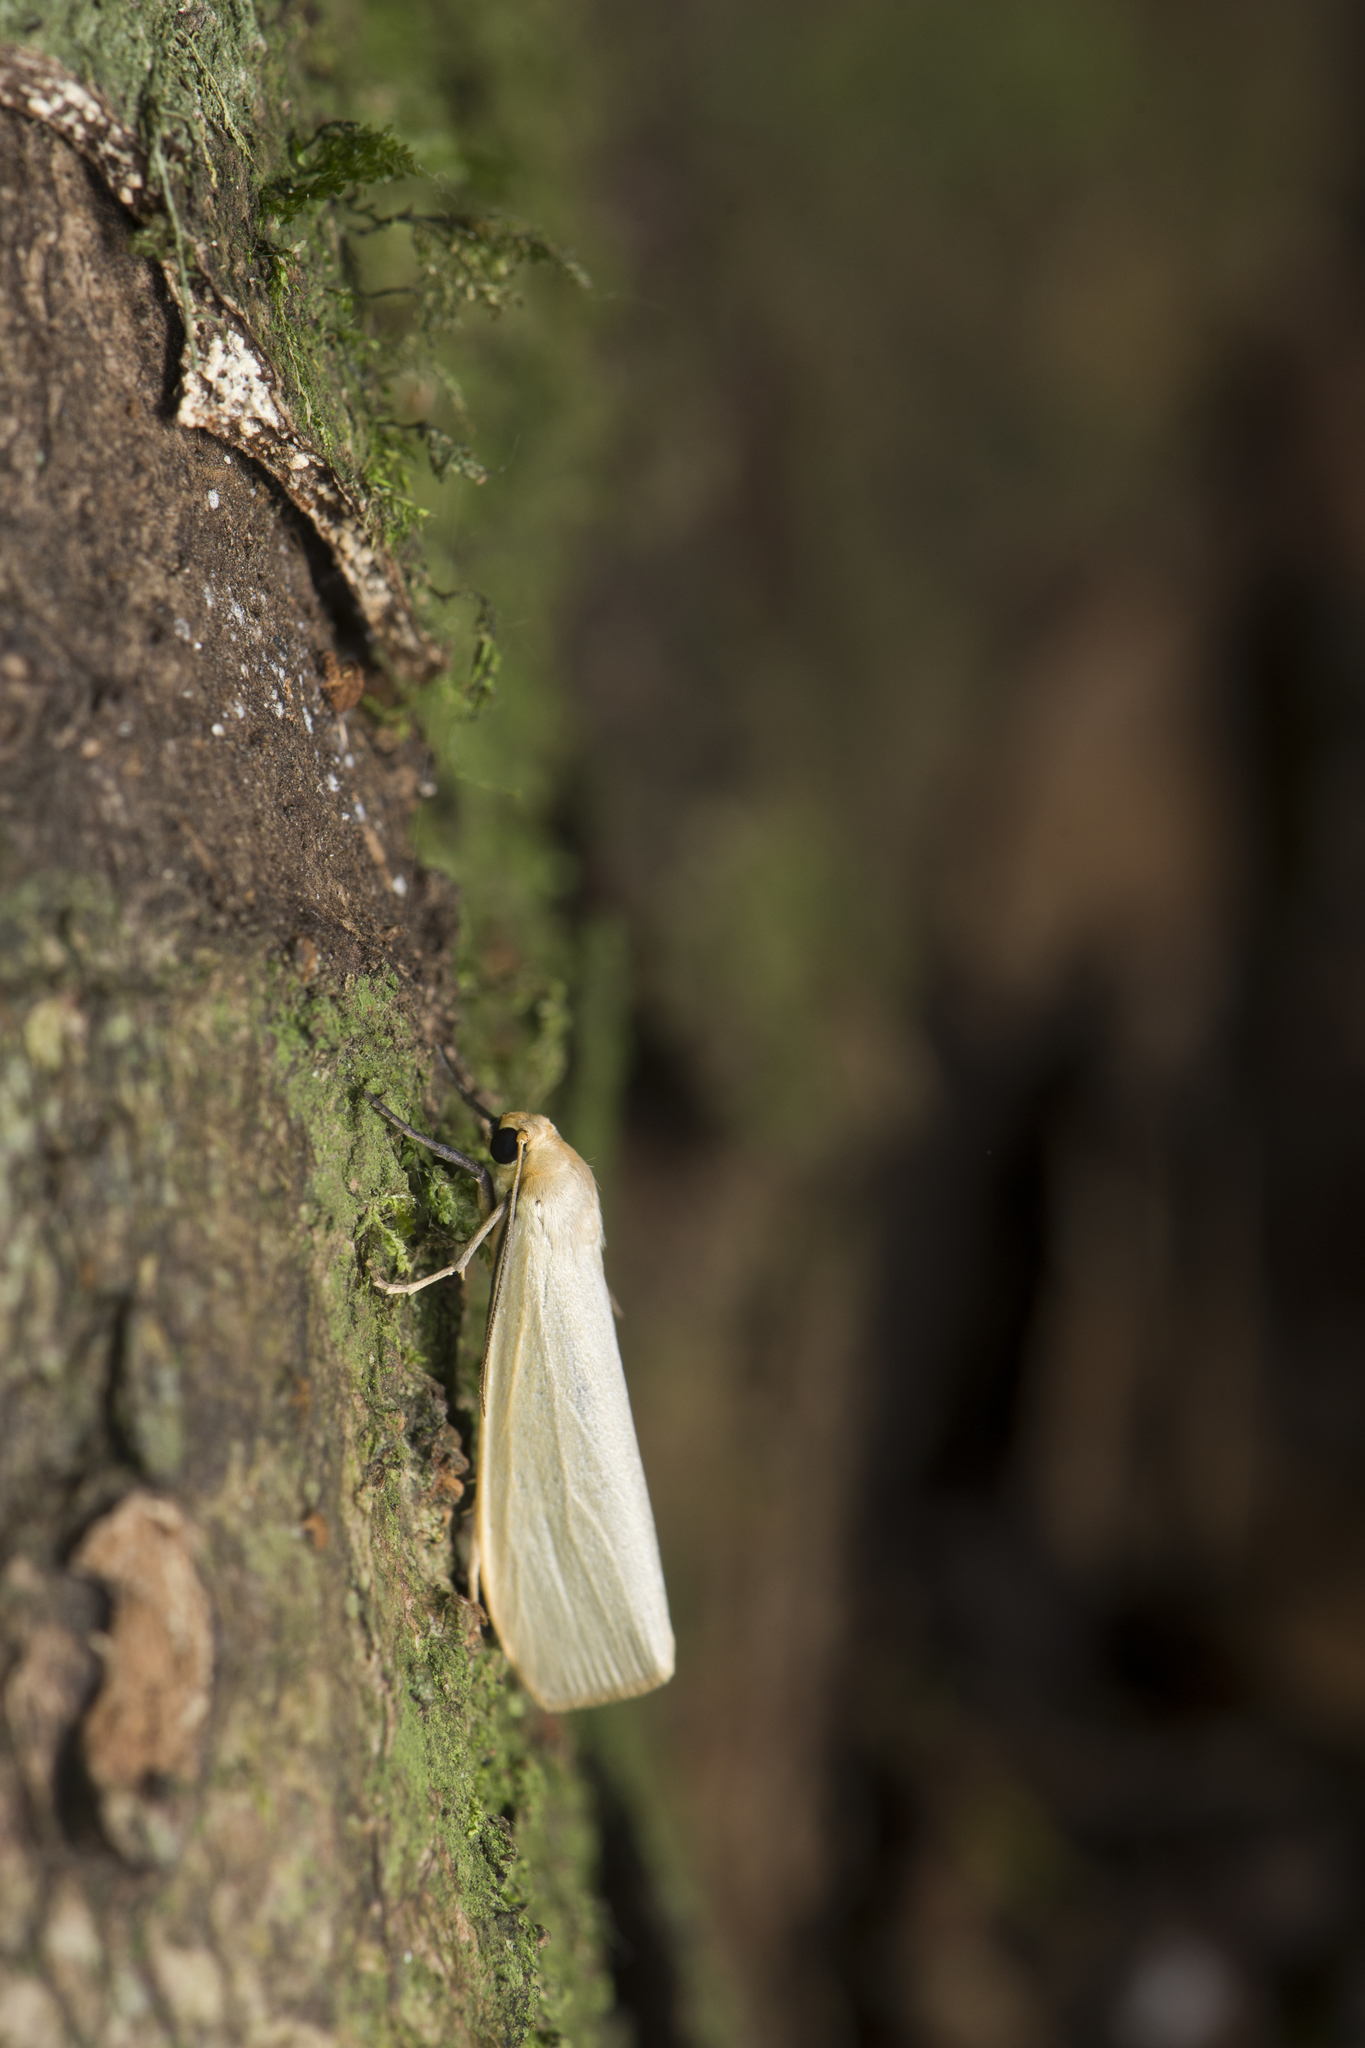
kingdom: Animalia
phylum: Arthropoda
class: Insecta
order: Lepidoptera
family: Erebidae
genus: Ghoria
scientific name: Ghoria tecta
